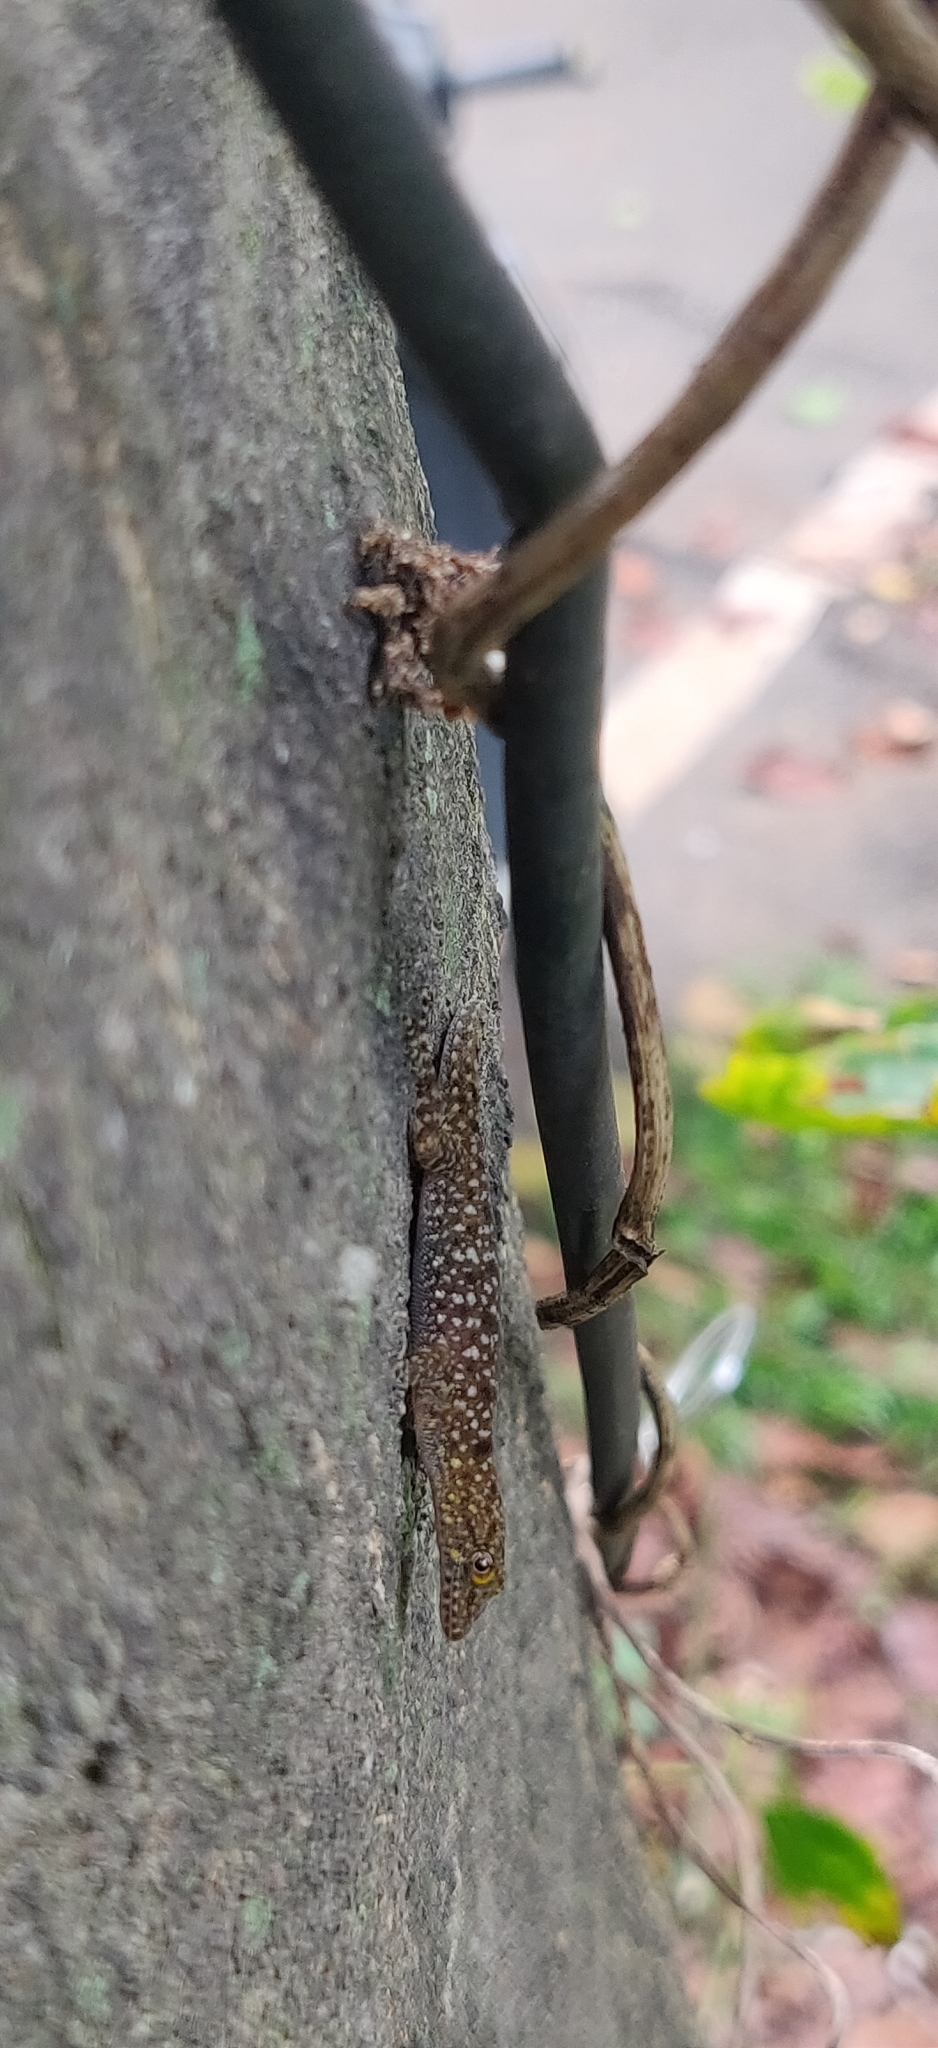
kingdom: Animalia
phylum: Chordata
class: Squamata
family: Gekkonidae
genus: Cnemaspis
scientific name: Cnemaspis mysoriensis
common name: Mysore day gecko
